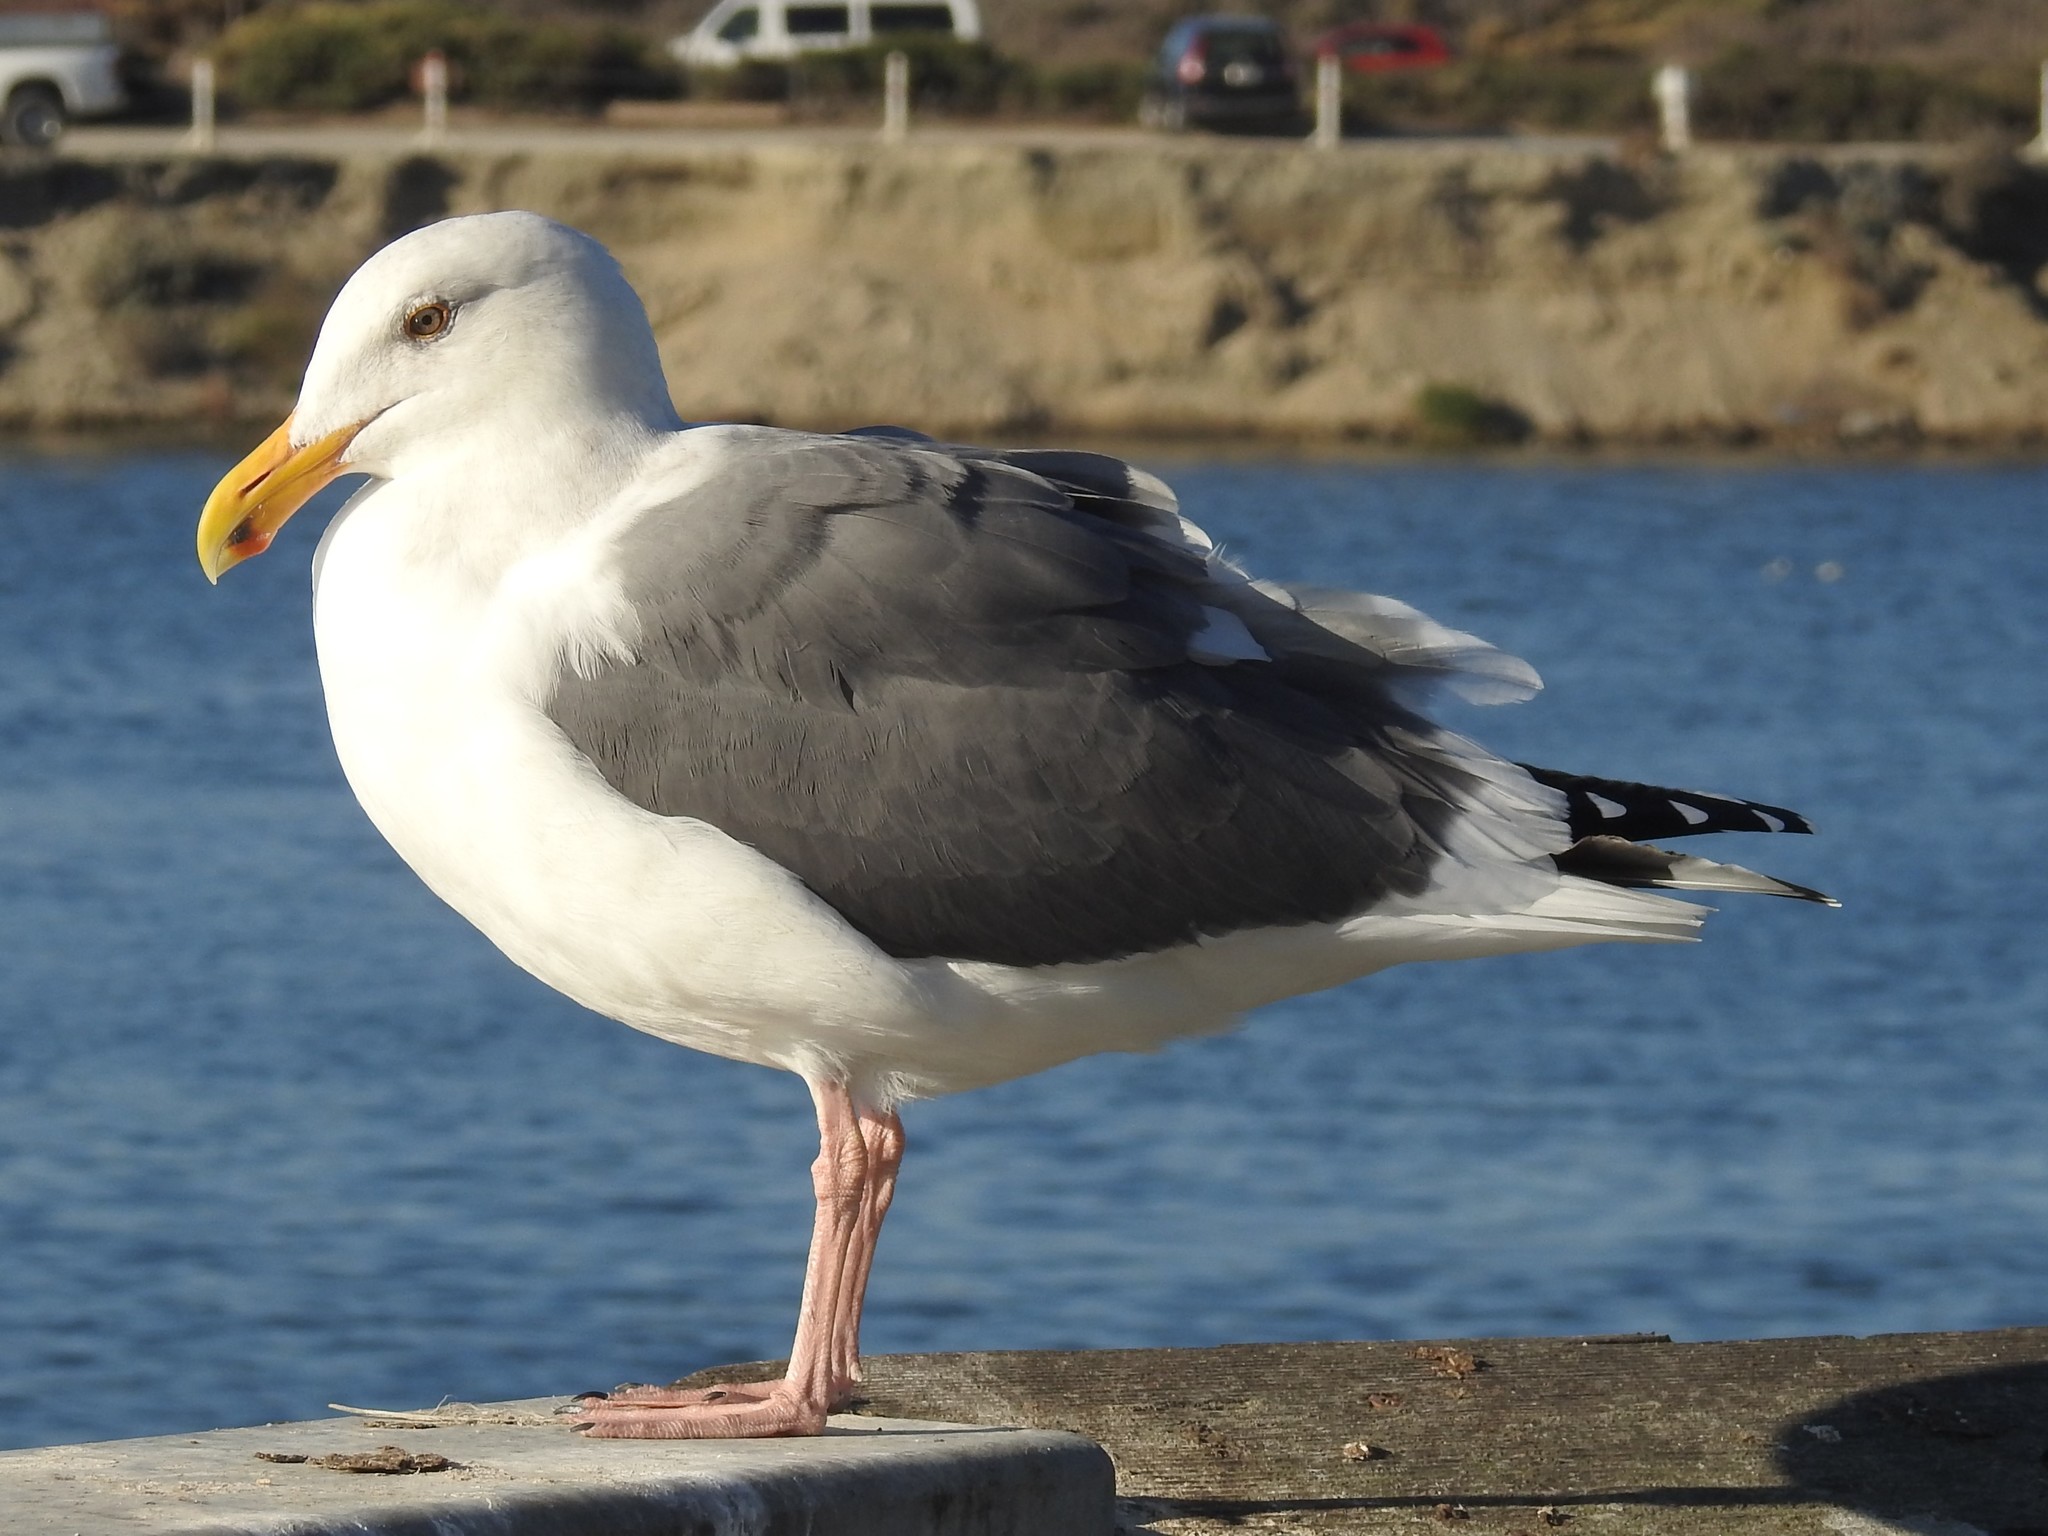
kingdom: Animalia
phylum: Chordata
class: Aves
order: Charadriiformes
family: Laridae
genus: Larus
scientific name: Larus occidentalis
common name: Western gull
